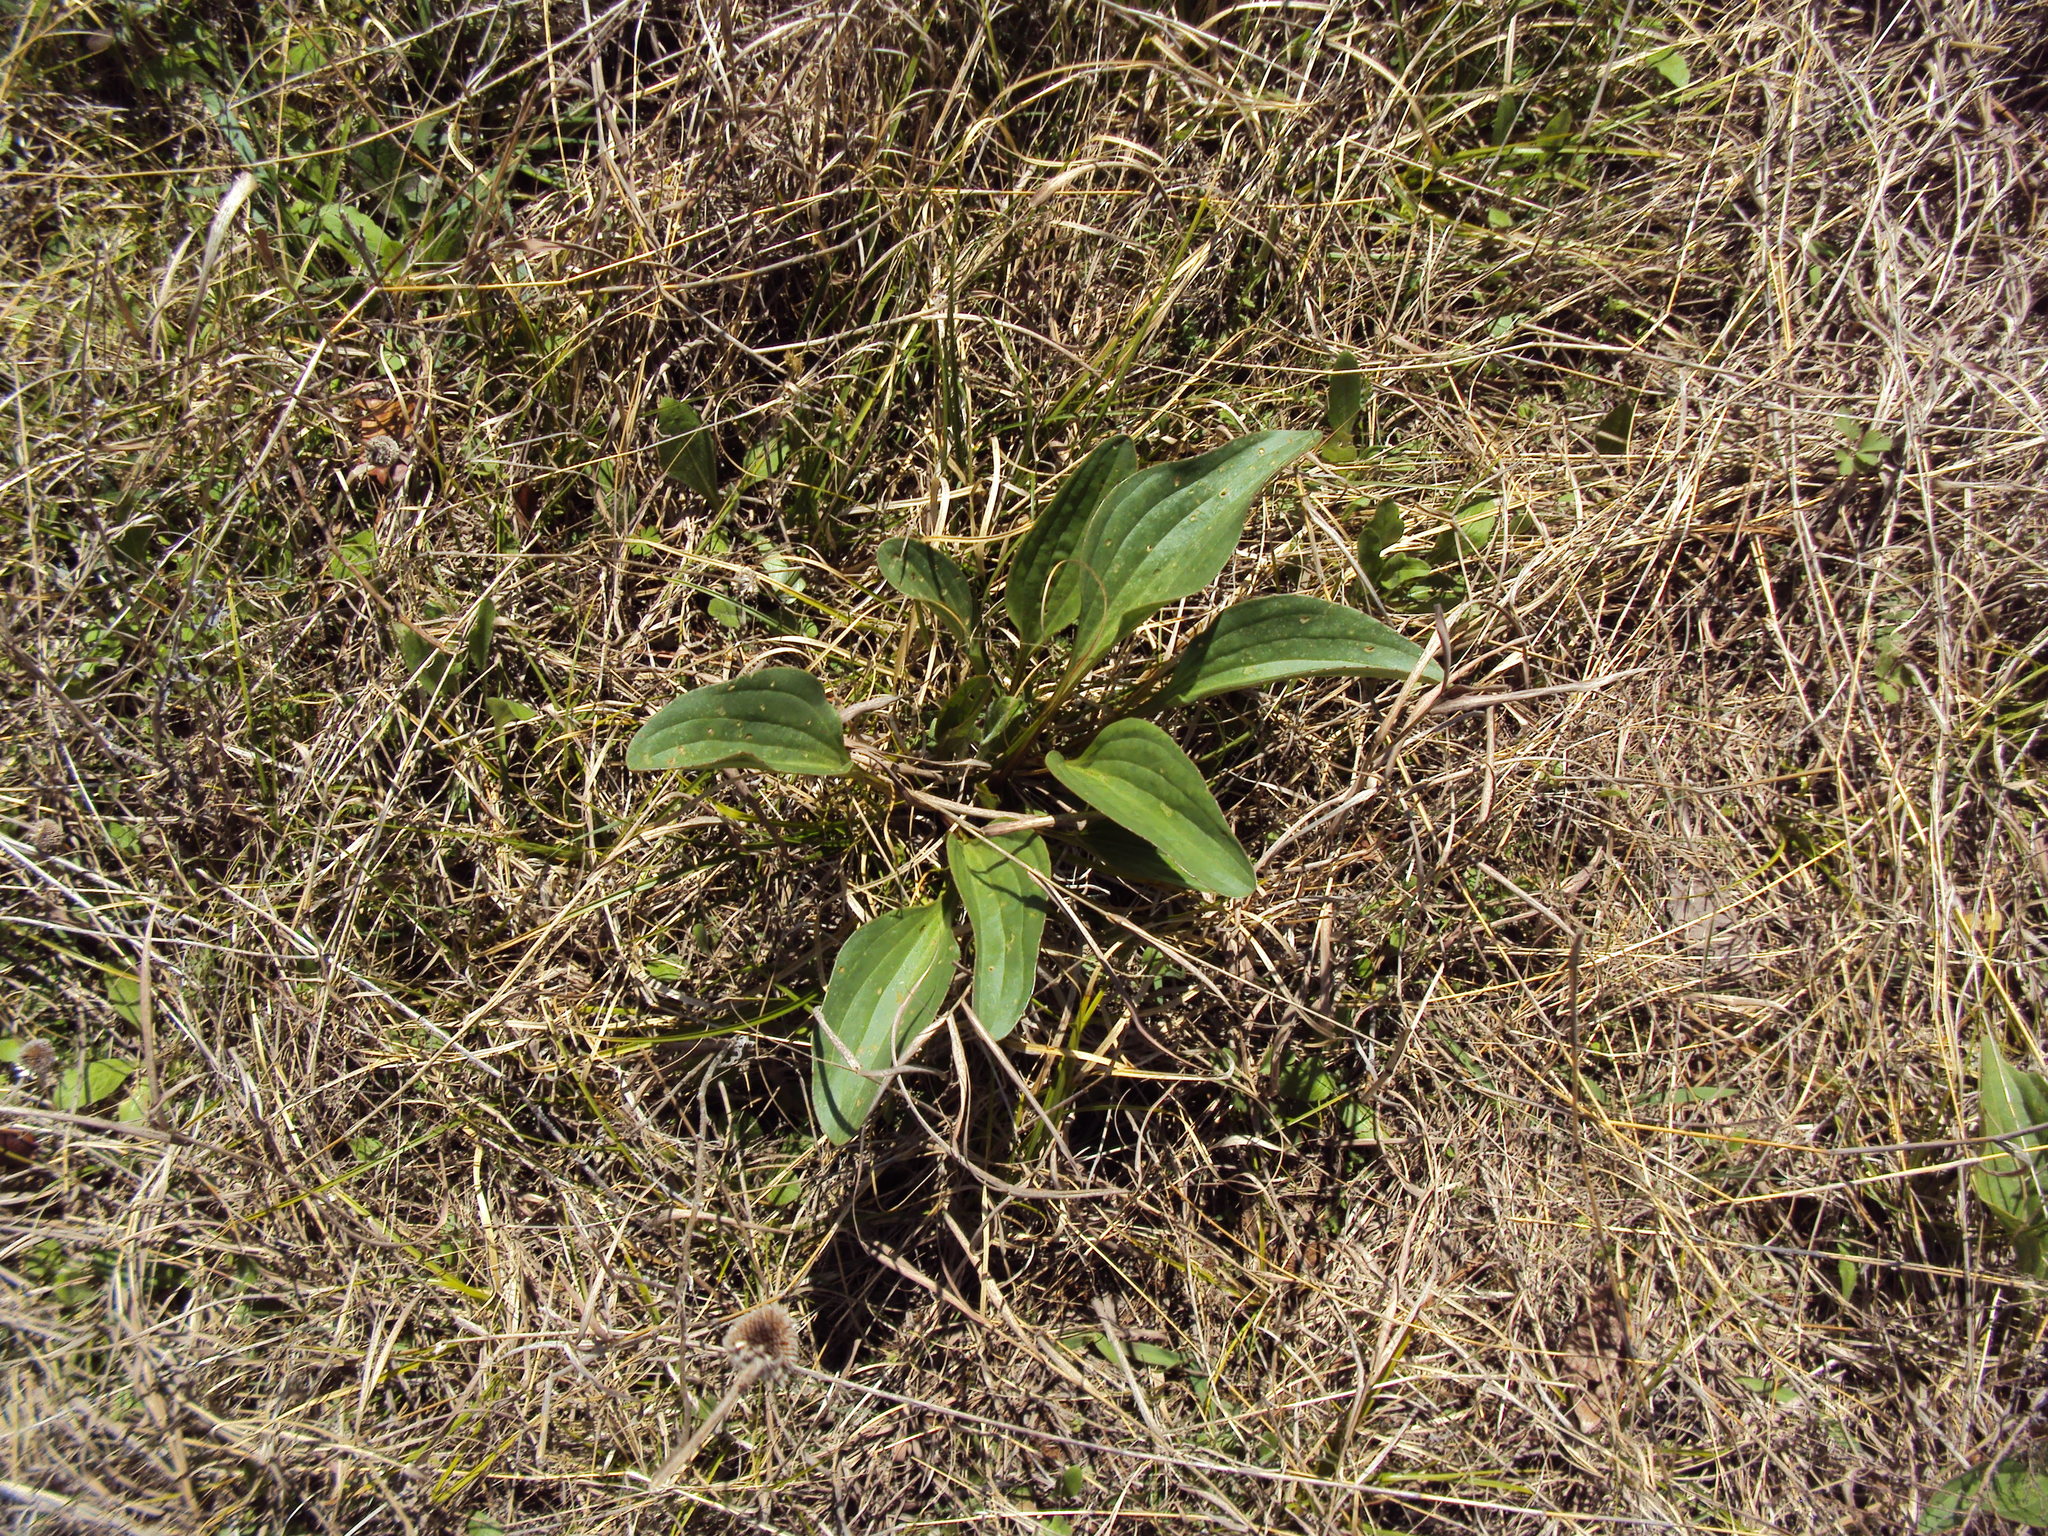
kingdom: Plantae
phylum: Tracheophyta
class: Magnoliopsida
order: Asterales
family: Asteraceae
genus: Arnoglossum
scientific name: Arnoglossum plantagineum
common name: Groove-stemmed indian-plantain
